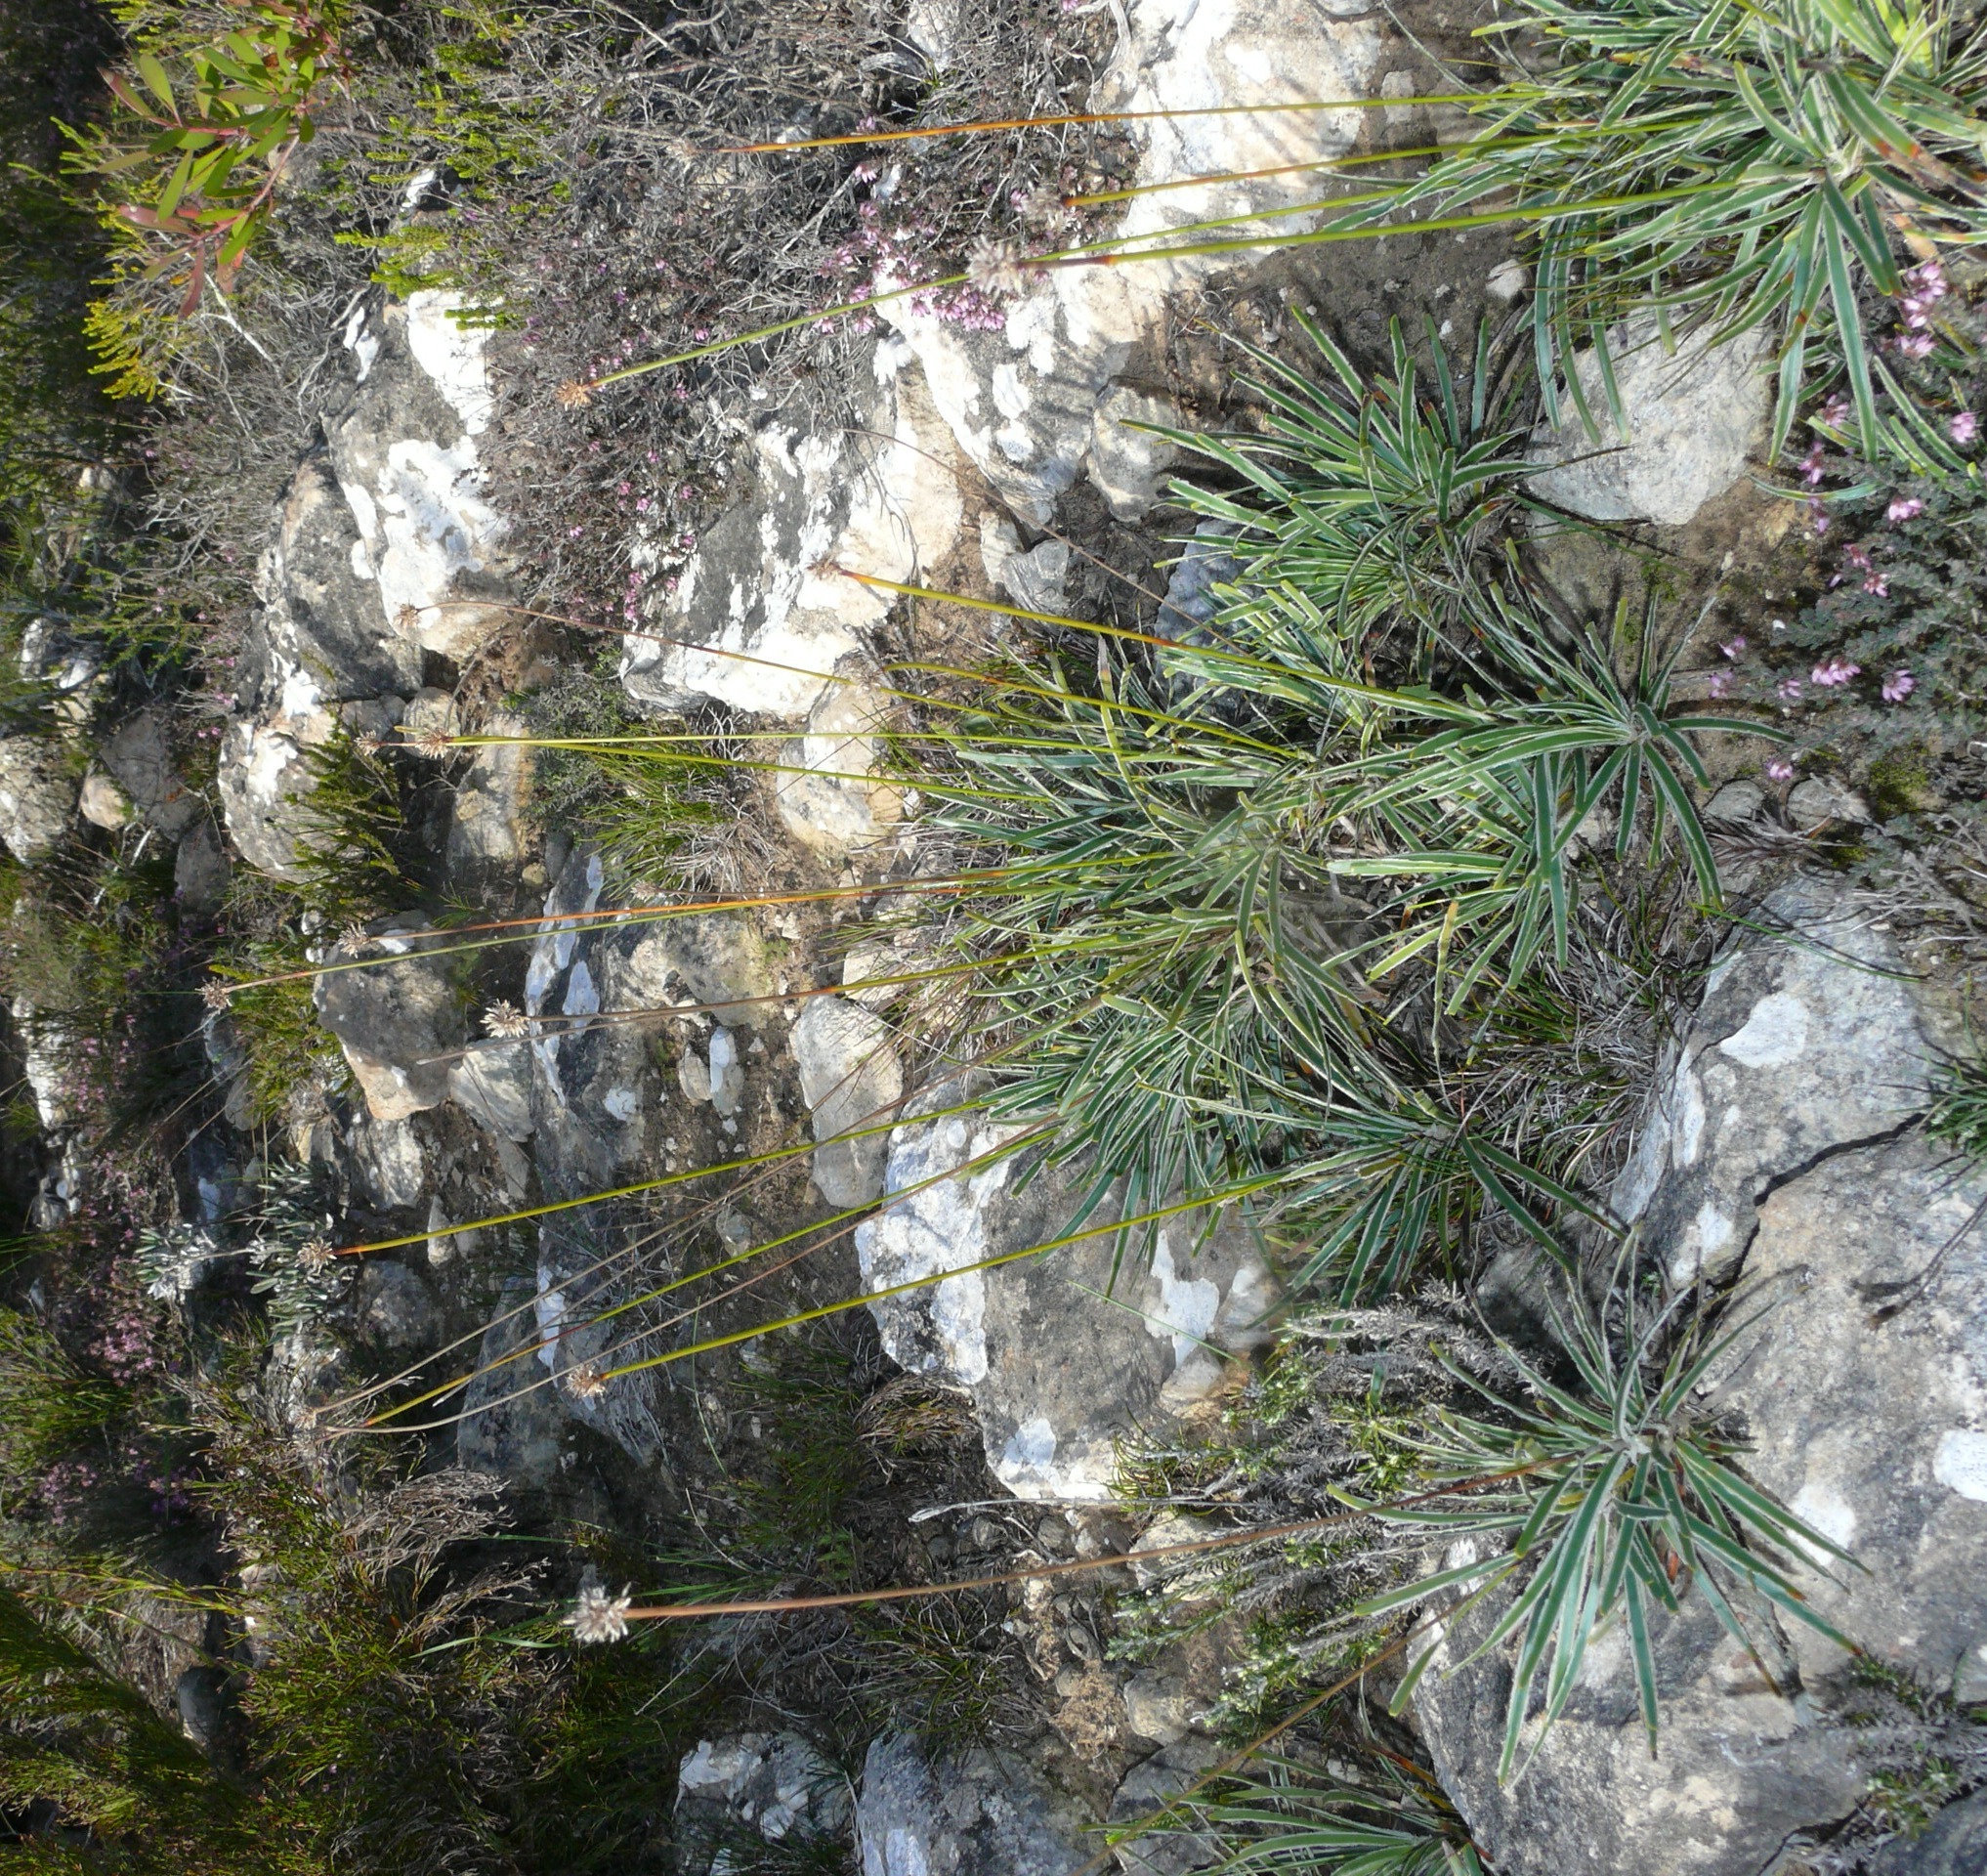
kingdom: Plantae
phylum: Tracheophyta
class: Liliopsida
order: Poales
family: Cyperaceae
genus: Ficinia
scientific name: Ficinia truncata
